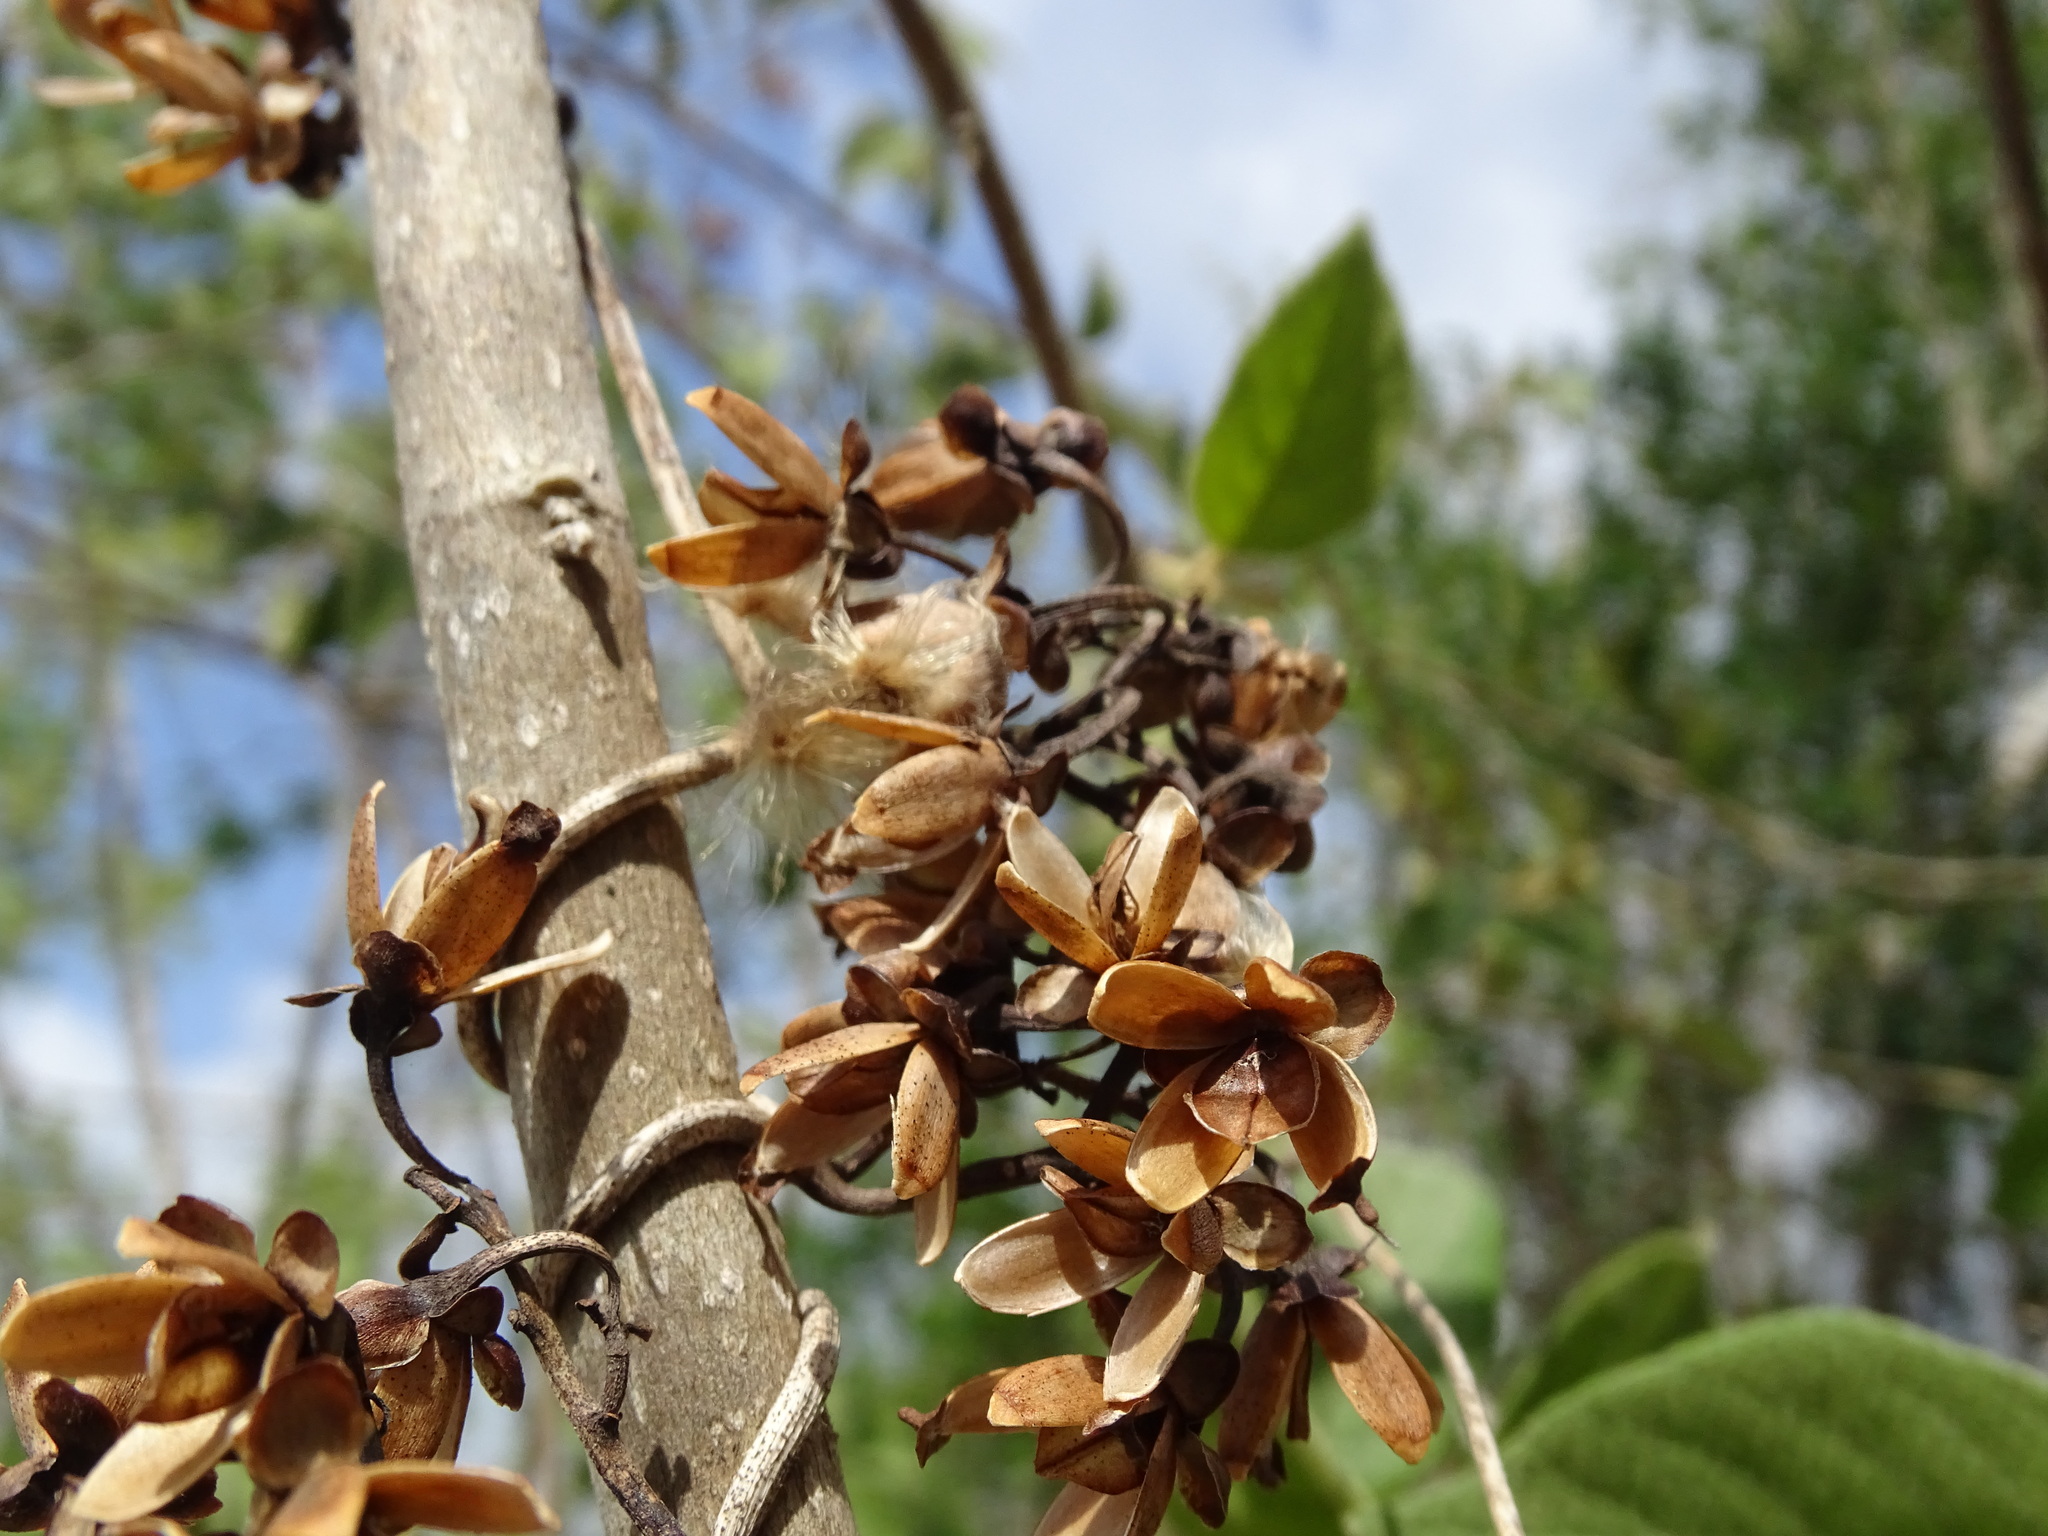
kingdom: Plantae
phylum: Tracheophyta
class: Magnoliopsida
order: Solanales
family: Convolvulaceae
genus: Ipomoea
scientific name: Ipomoea clavata
